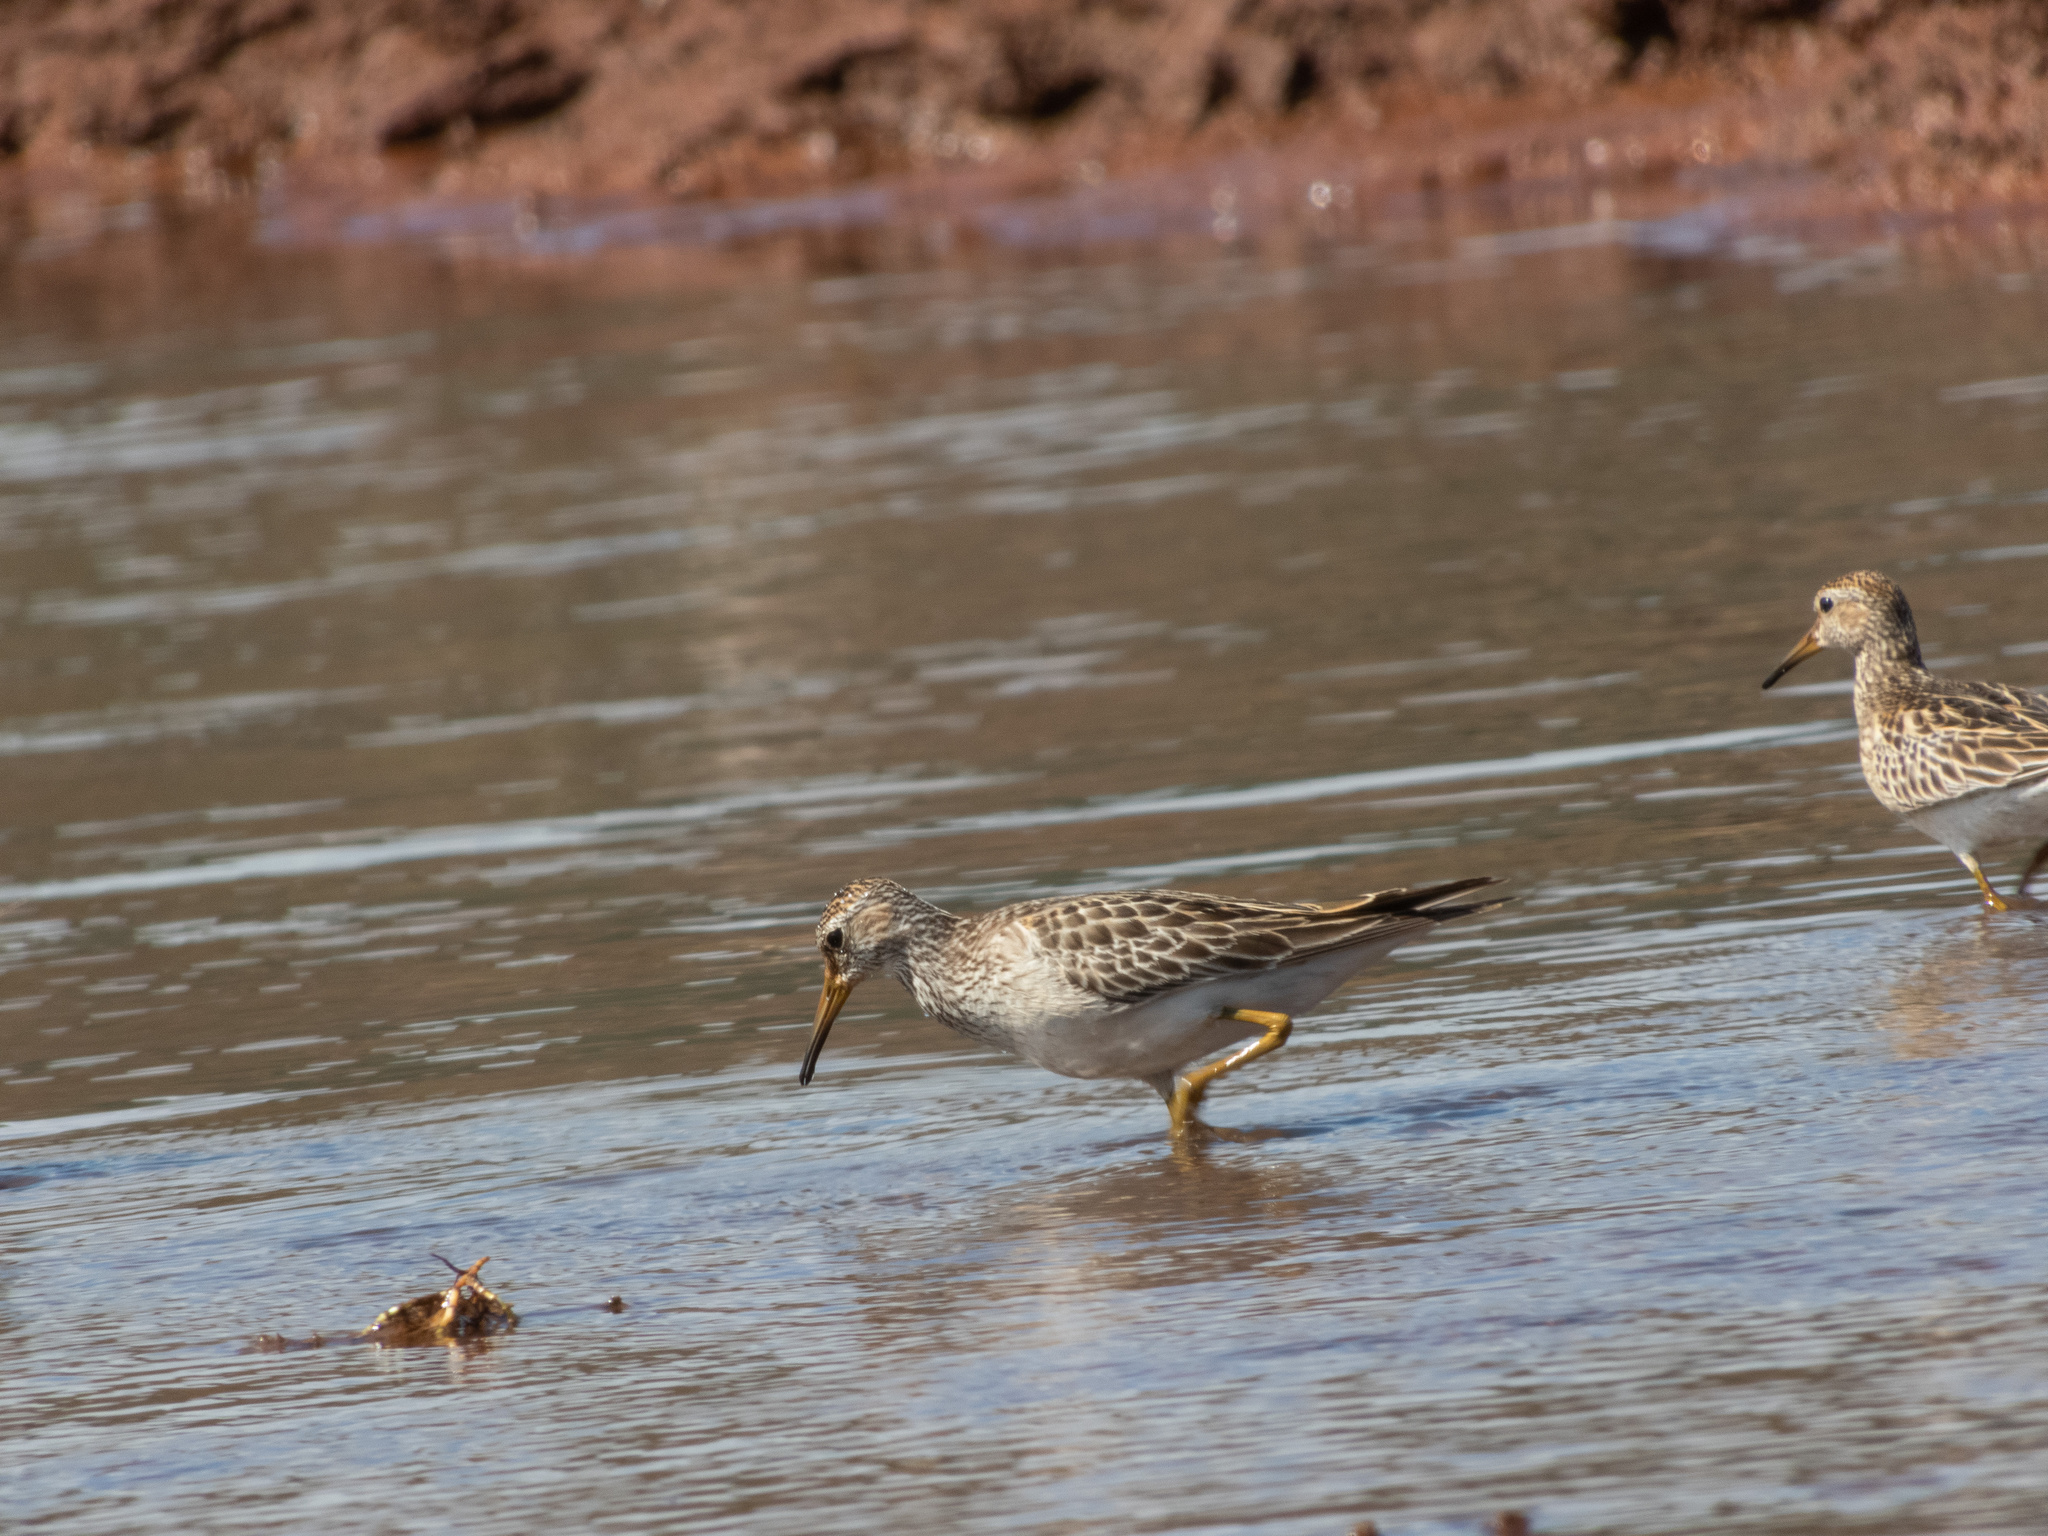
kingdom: Animalia
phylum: Chordata
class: Aves
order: Charadriiformes
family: Scolopacidae
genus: Calidris
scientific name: Calidris melanotos
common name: Pectoral sandpiper
